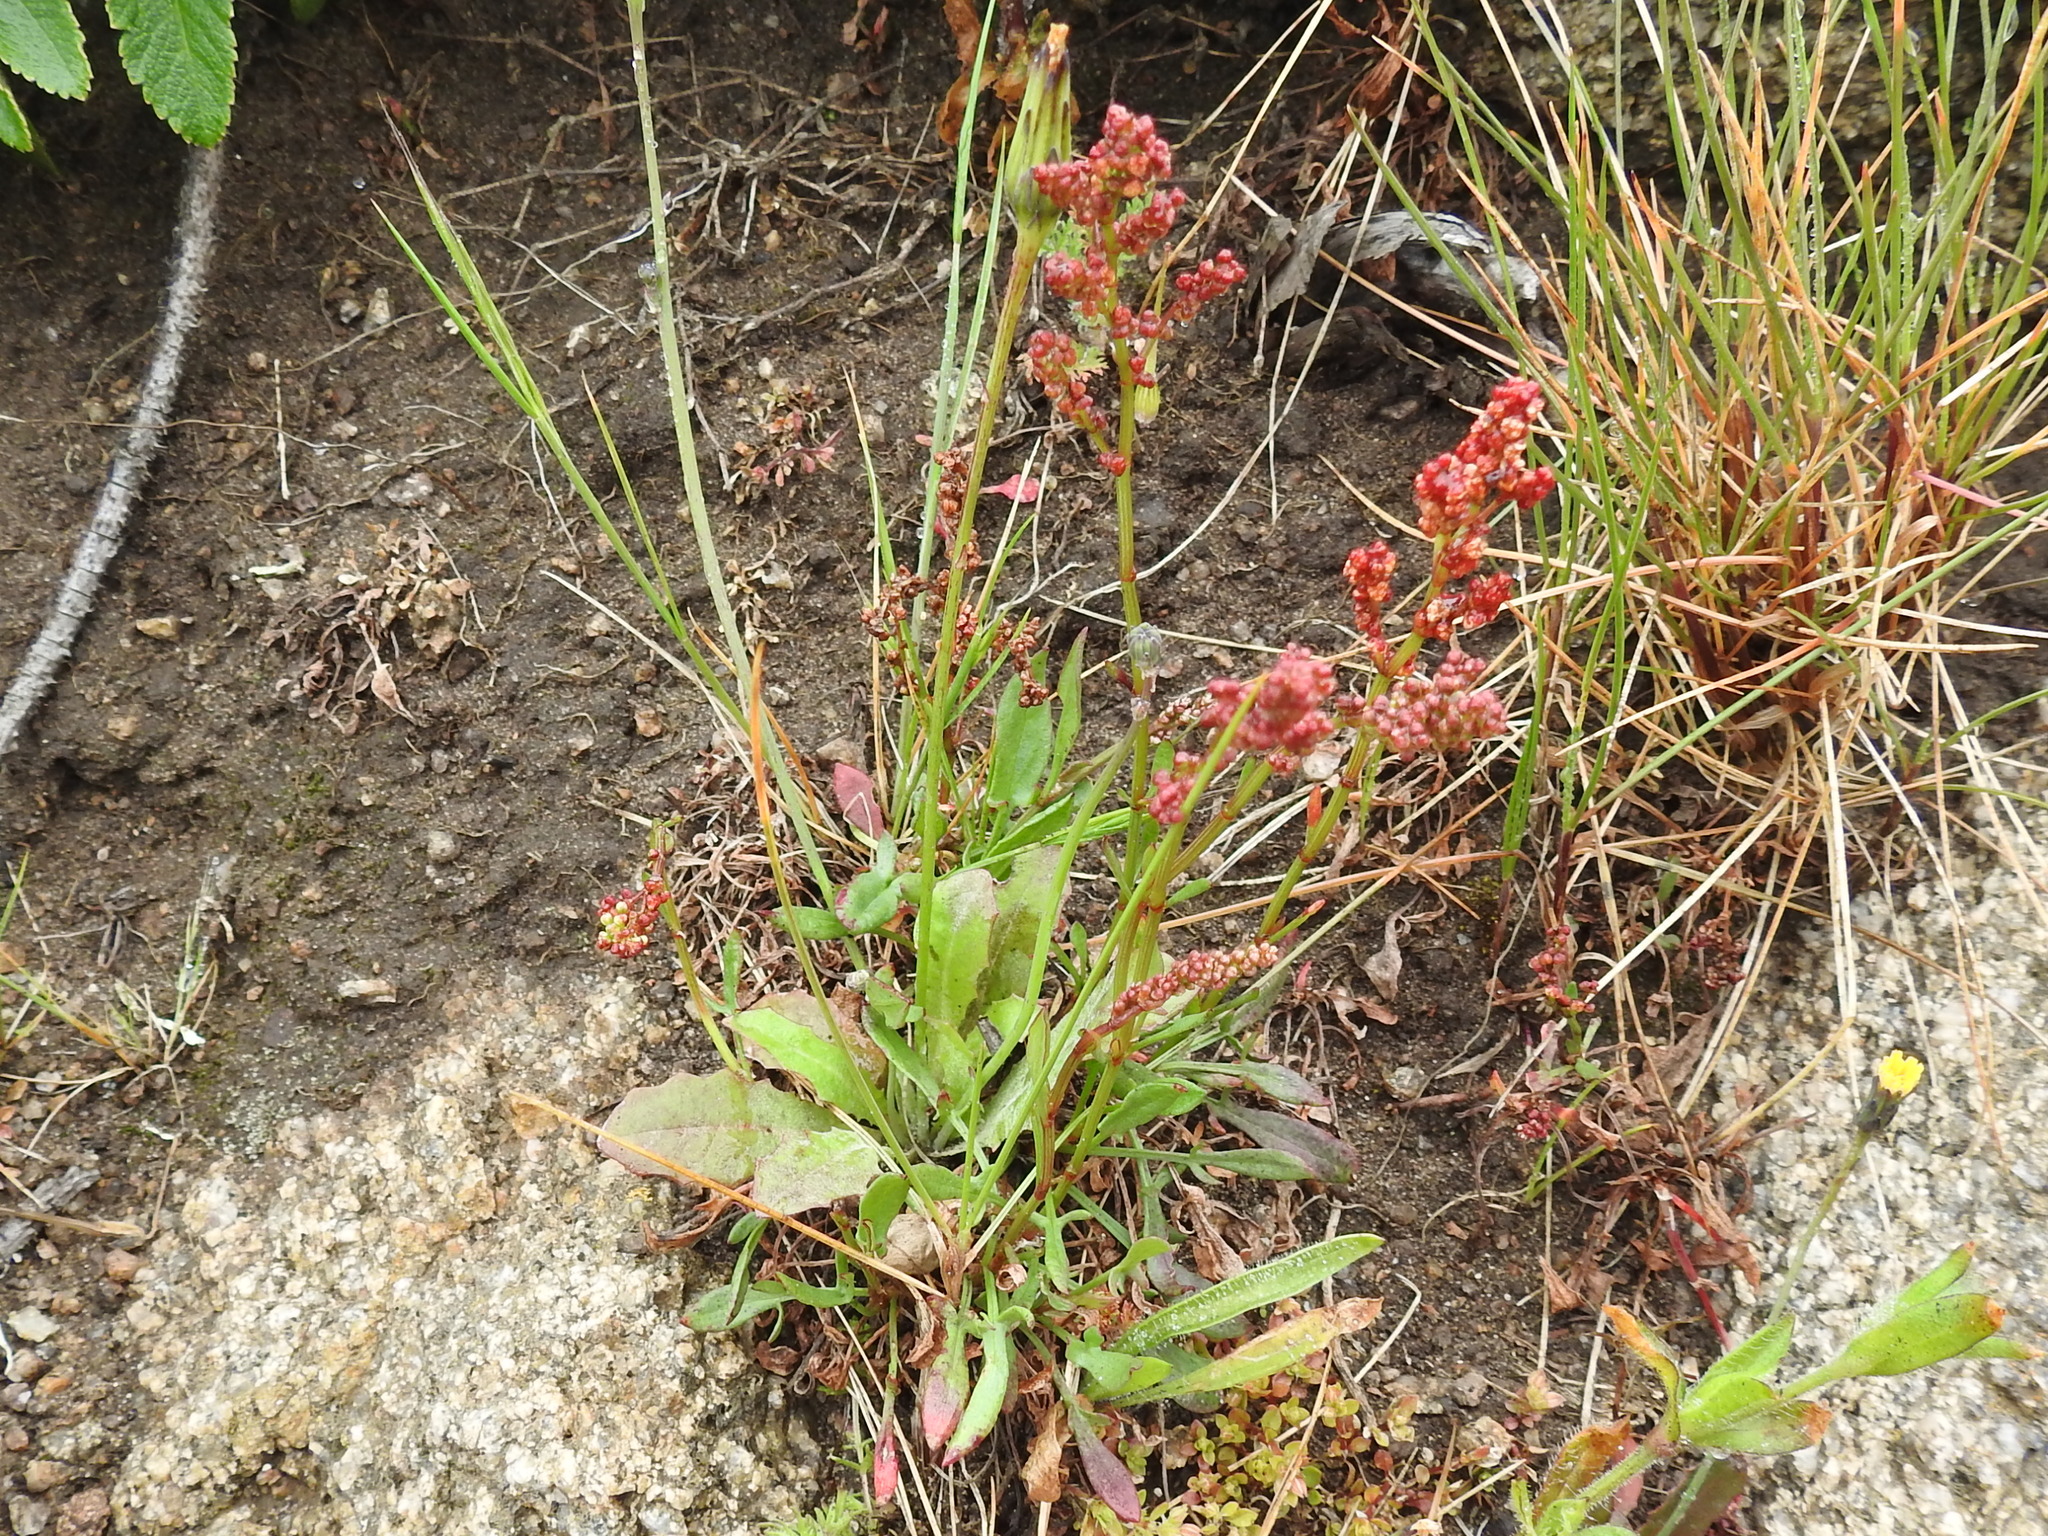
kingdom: Plantae
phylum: Tracheophyta
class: Magnoliopsida
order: Caryophyllales
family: Polygonaceae
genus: Rumex
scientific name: Rumex acetosella
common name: Common sheep sorrel
